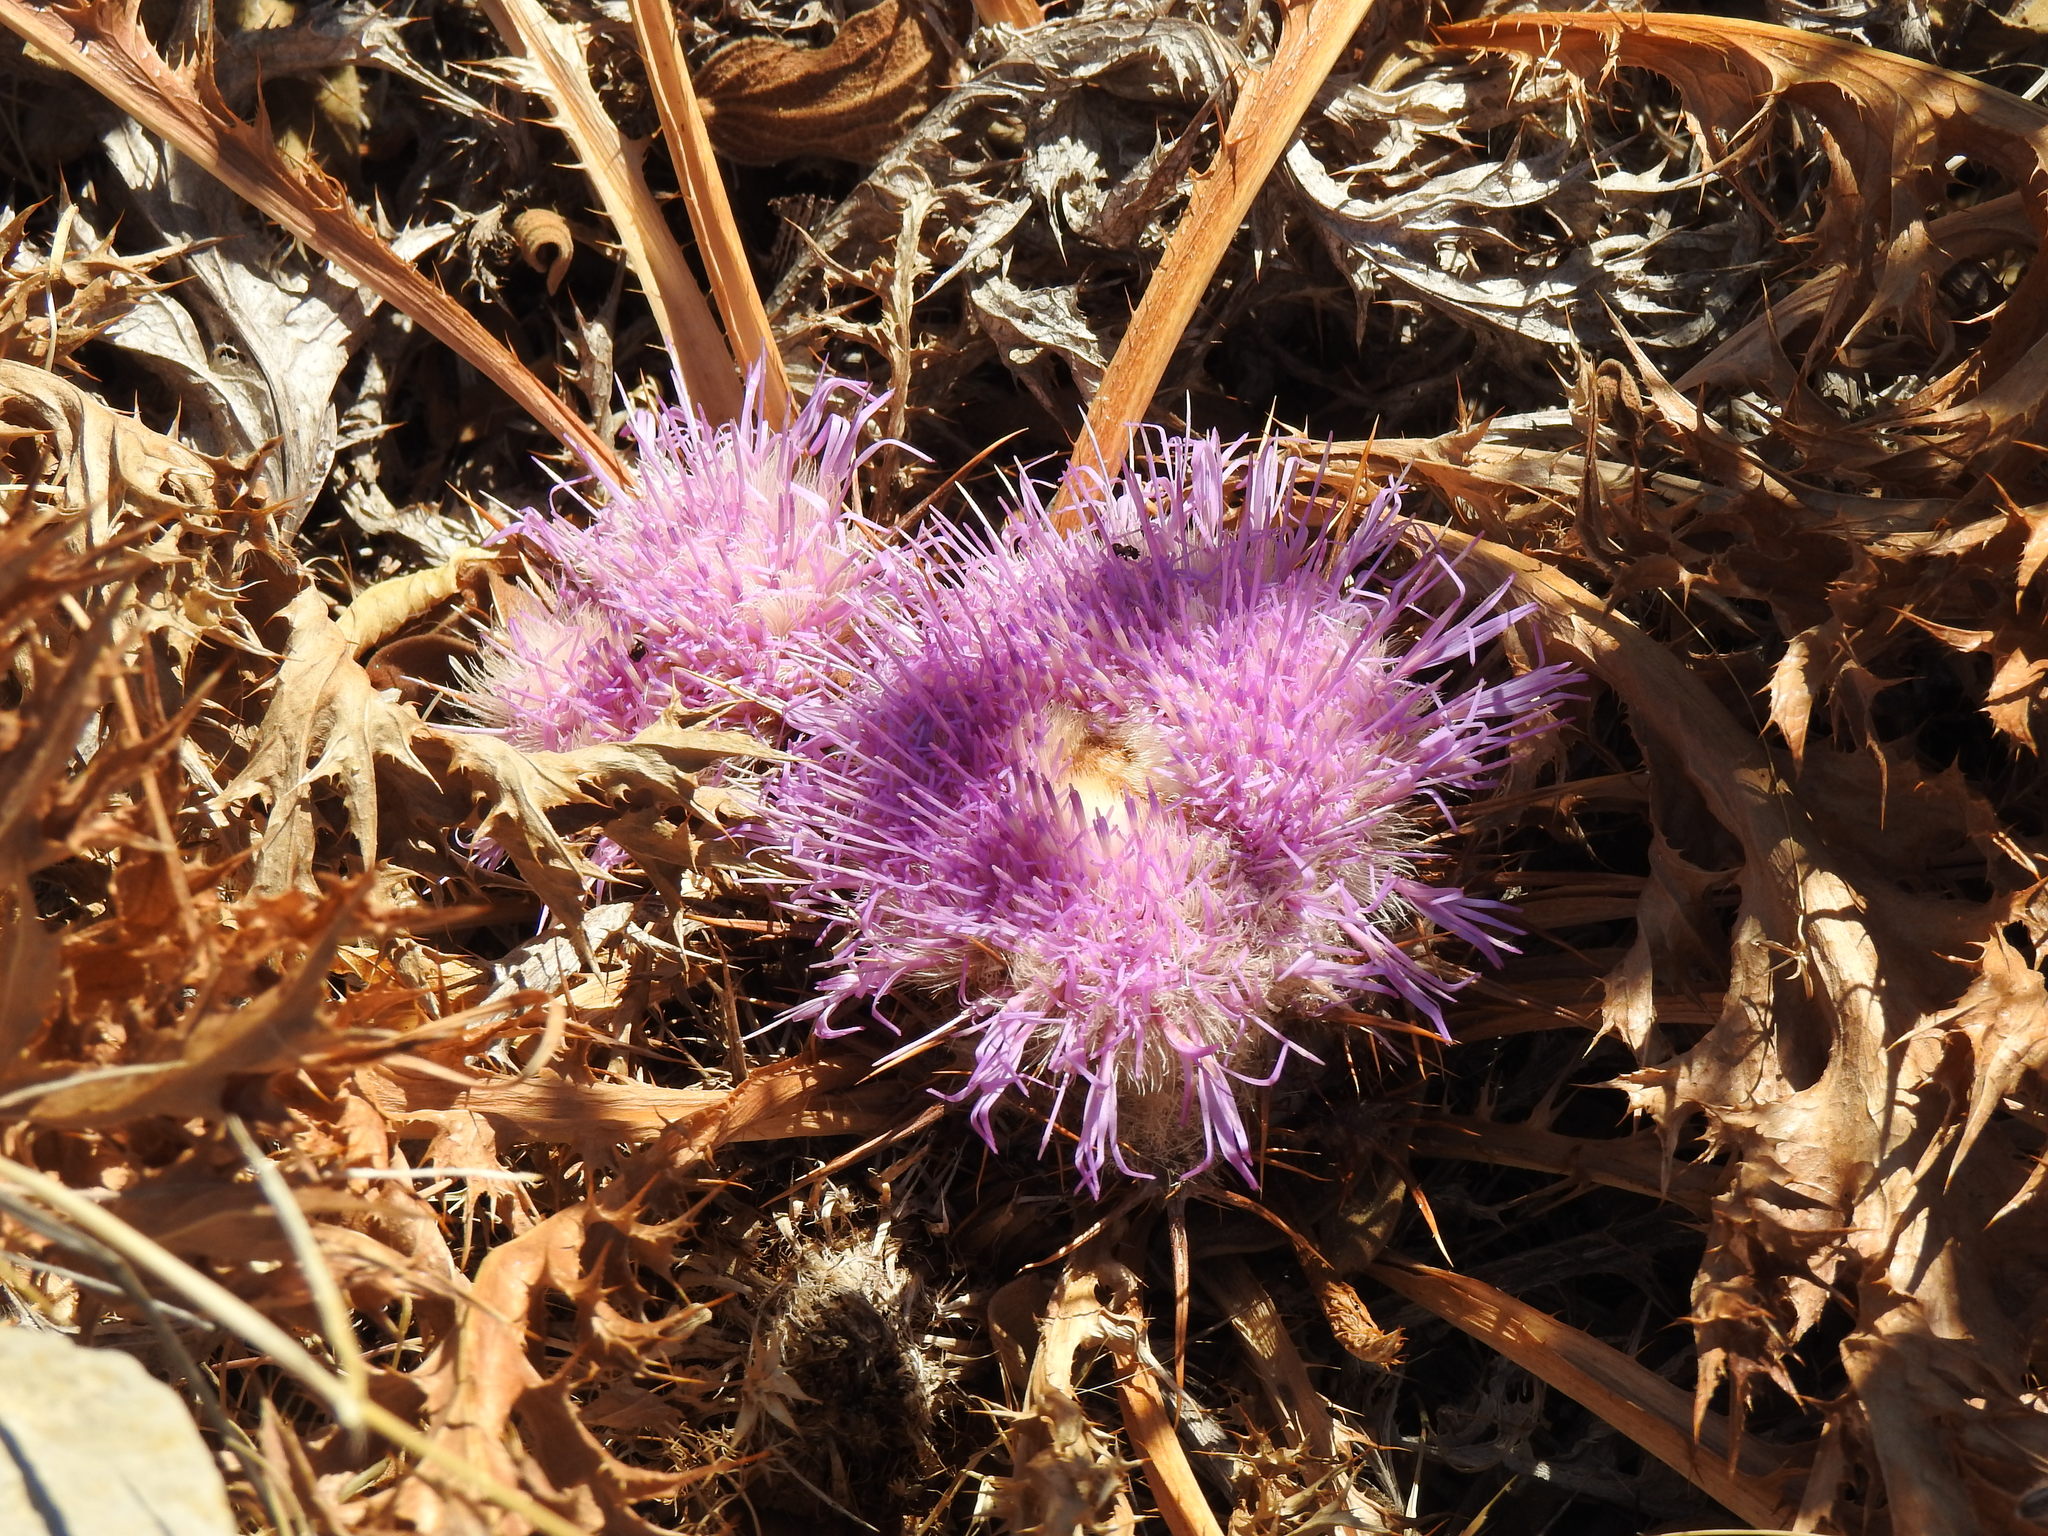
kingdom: Plantae
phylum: Tracheophyta
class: Magnoliopsida
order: Asterales
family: Asteraceae
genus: Chamaeleon
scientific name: Chamaeleon gummifer
